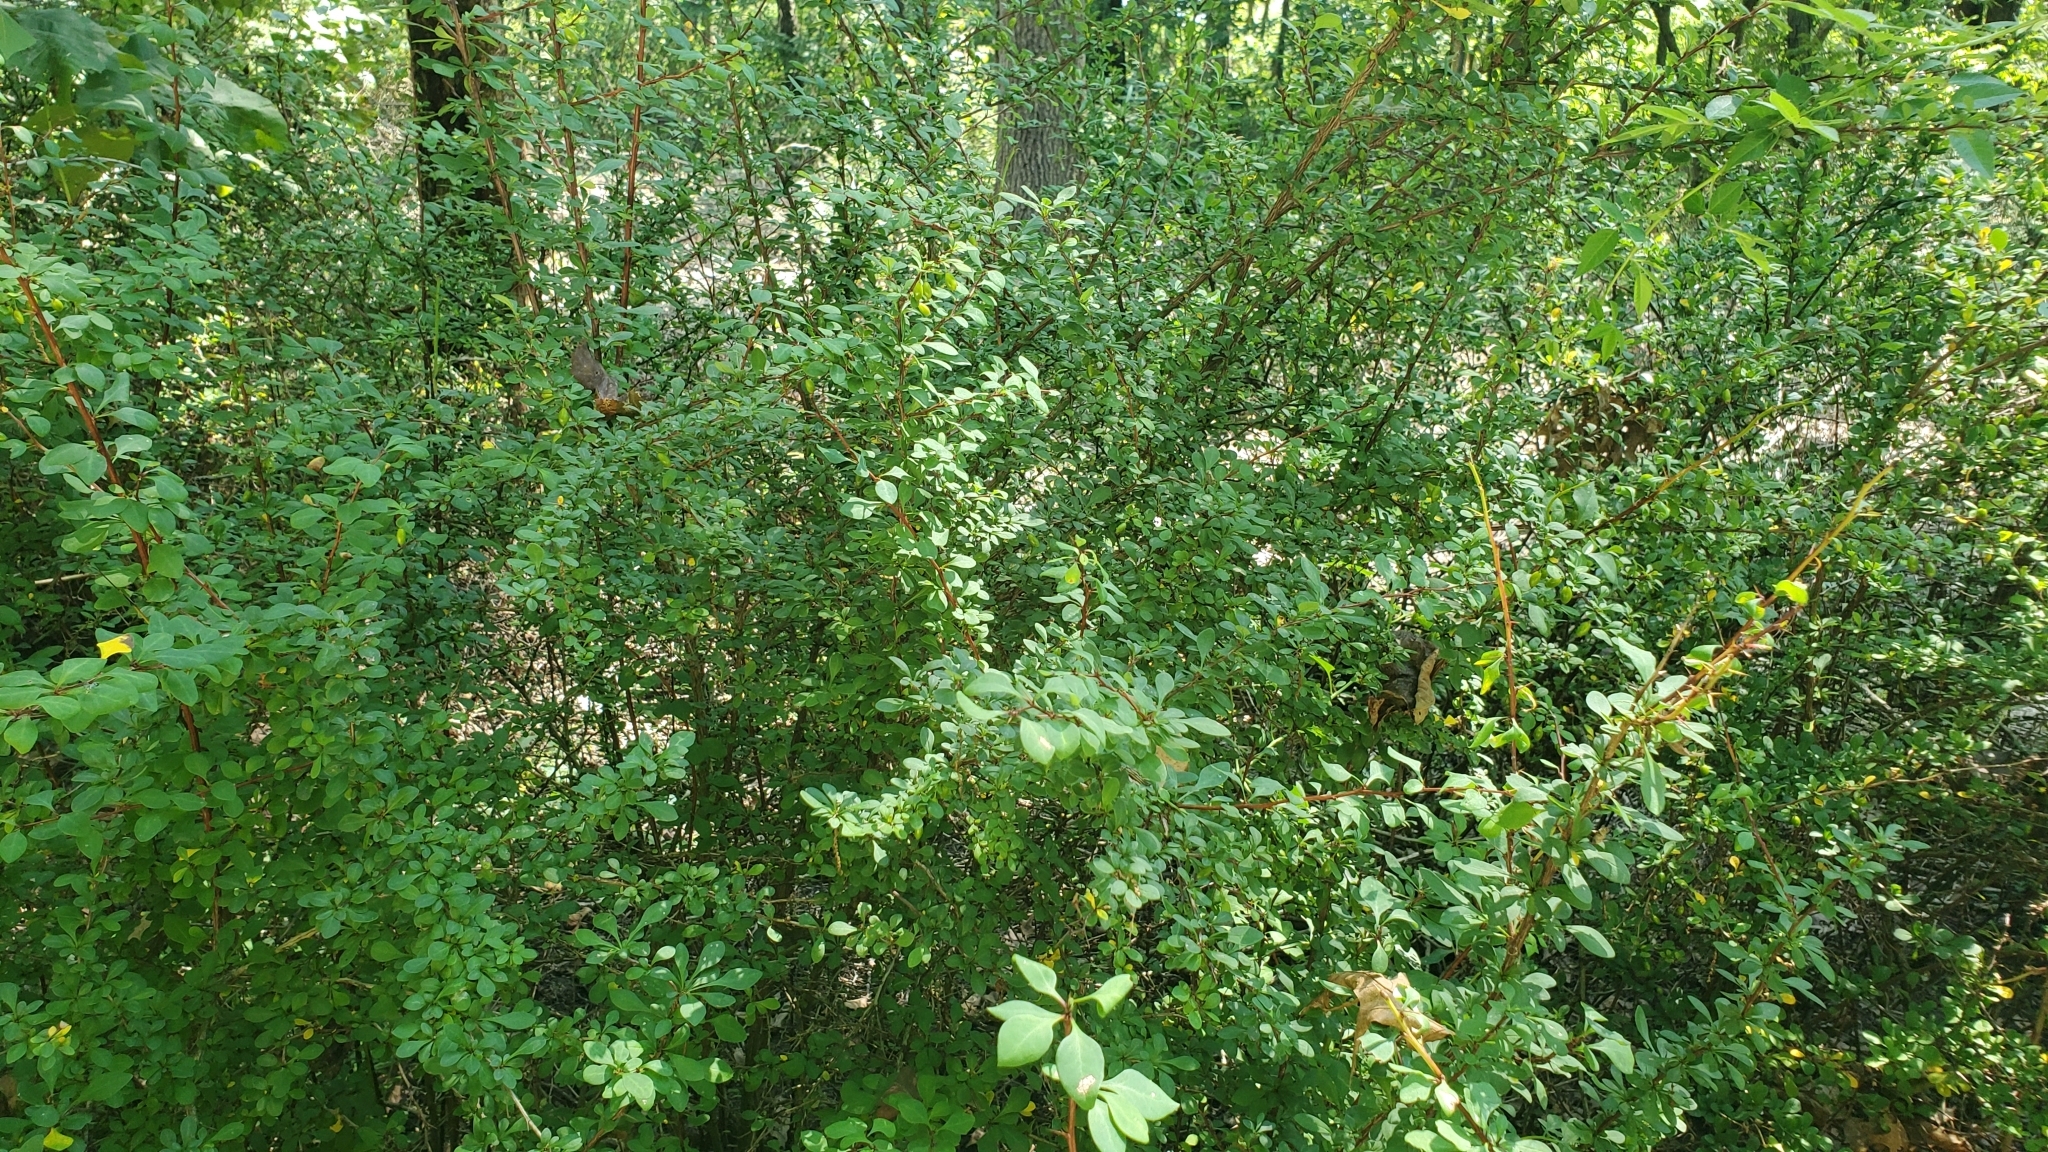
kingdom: Plantae
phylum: Tracheophyta
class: Magnoliopsida
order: Ranunculales
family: Berberidaceae
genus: Berberis
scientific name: Berberis thunbergii
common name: Japanese barberry
